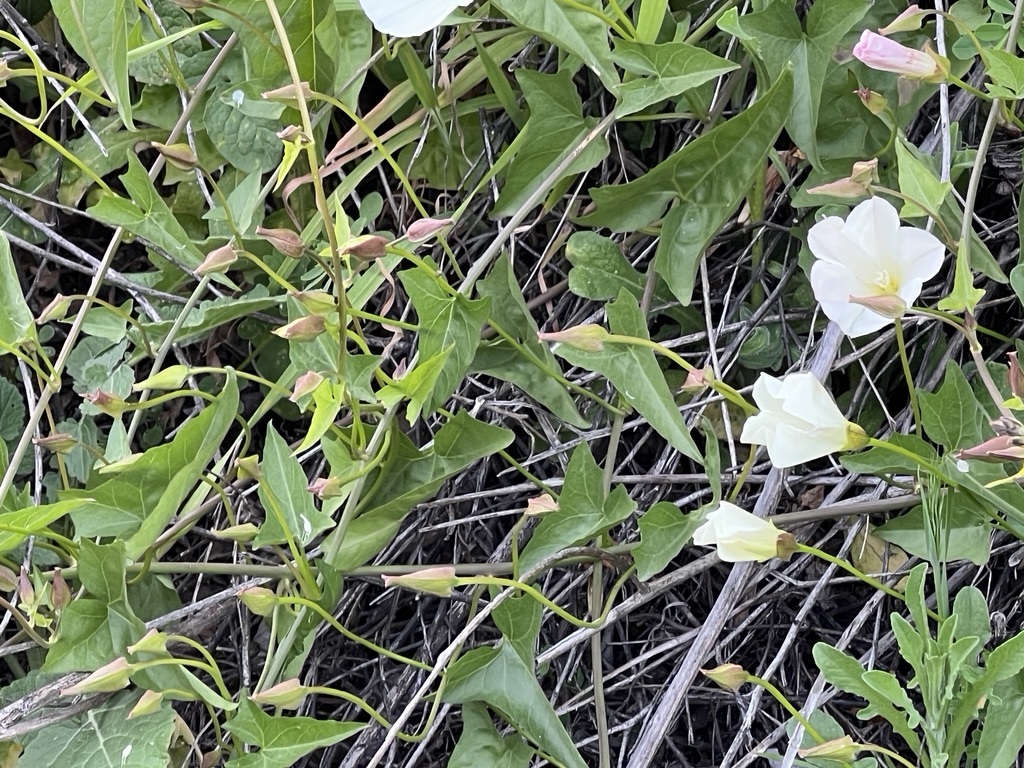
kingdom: Plantae
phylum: Tracheophyta
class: Magnoliopsida
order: Solanales
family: Convolvulaceae
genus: Calystegia
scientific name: Calystegia macrostegia
